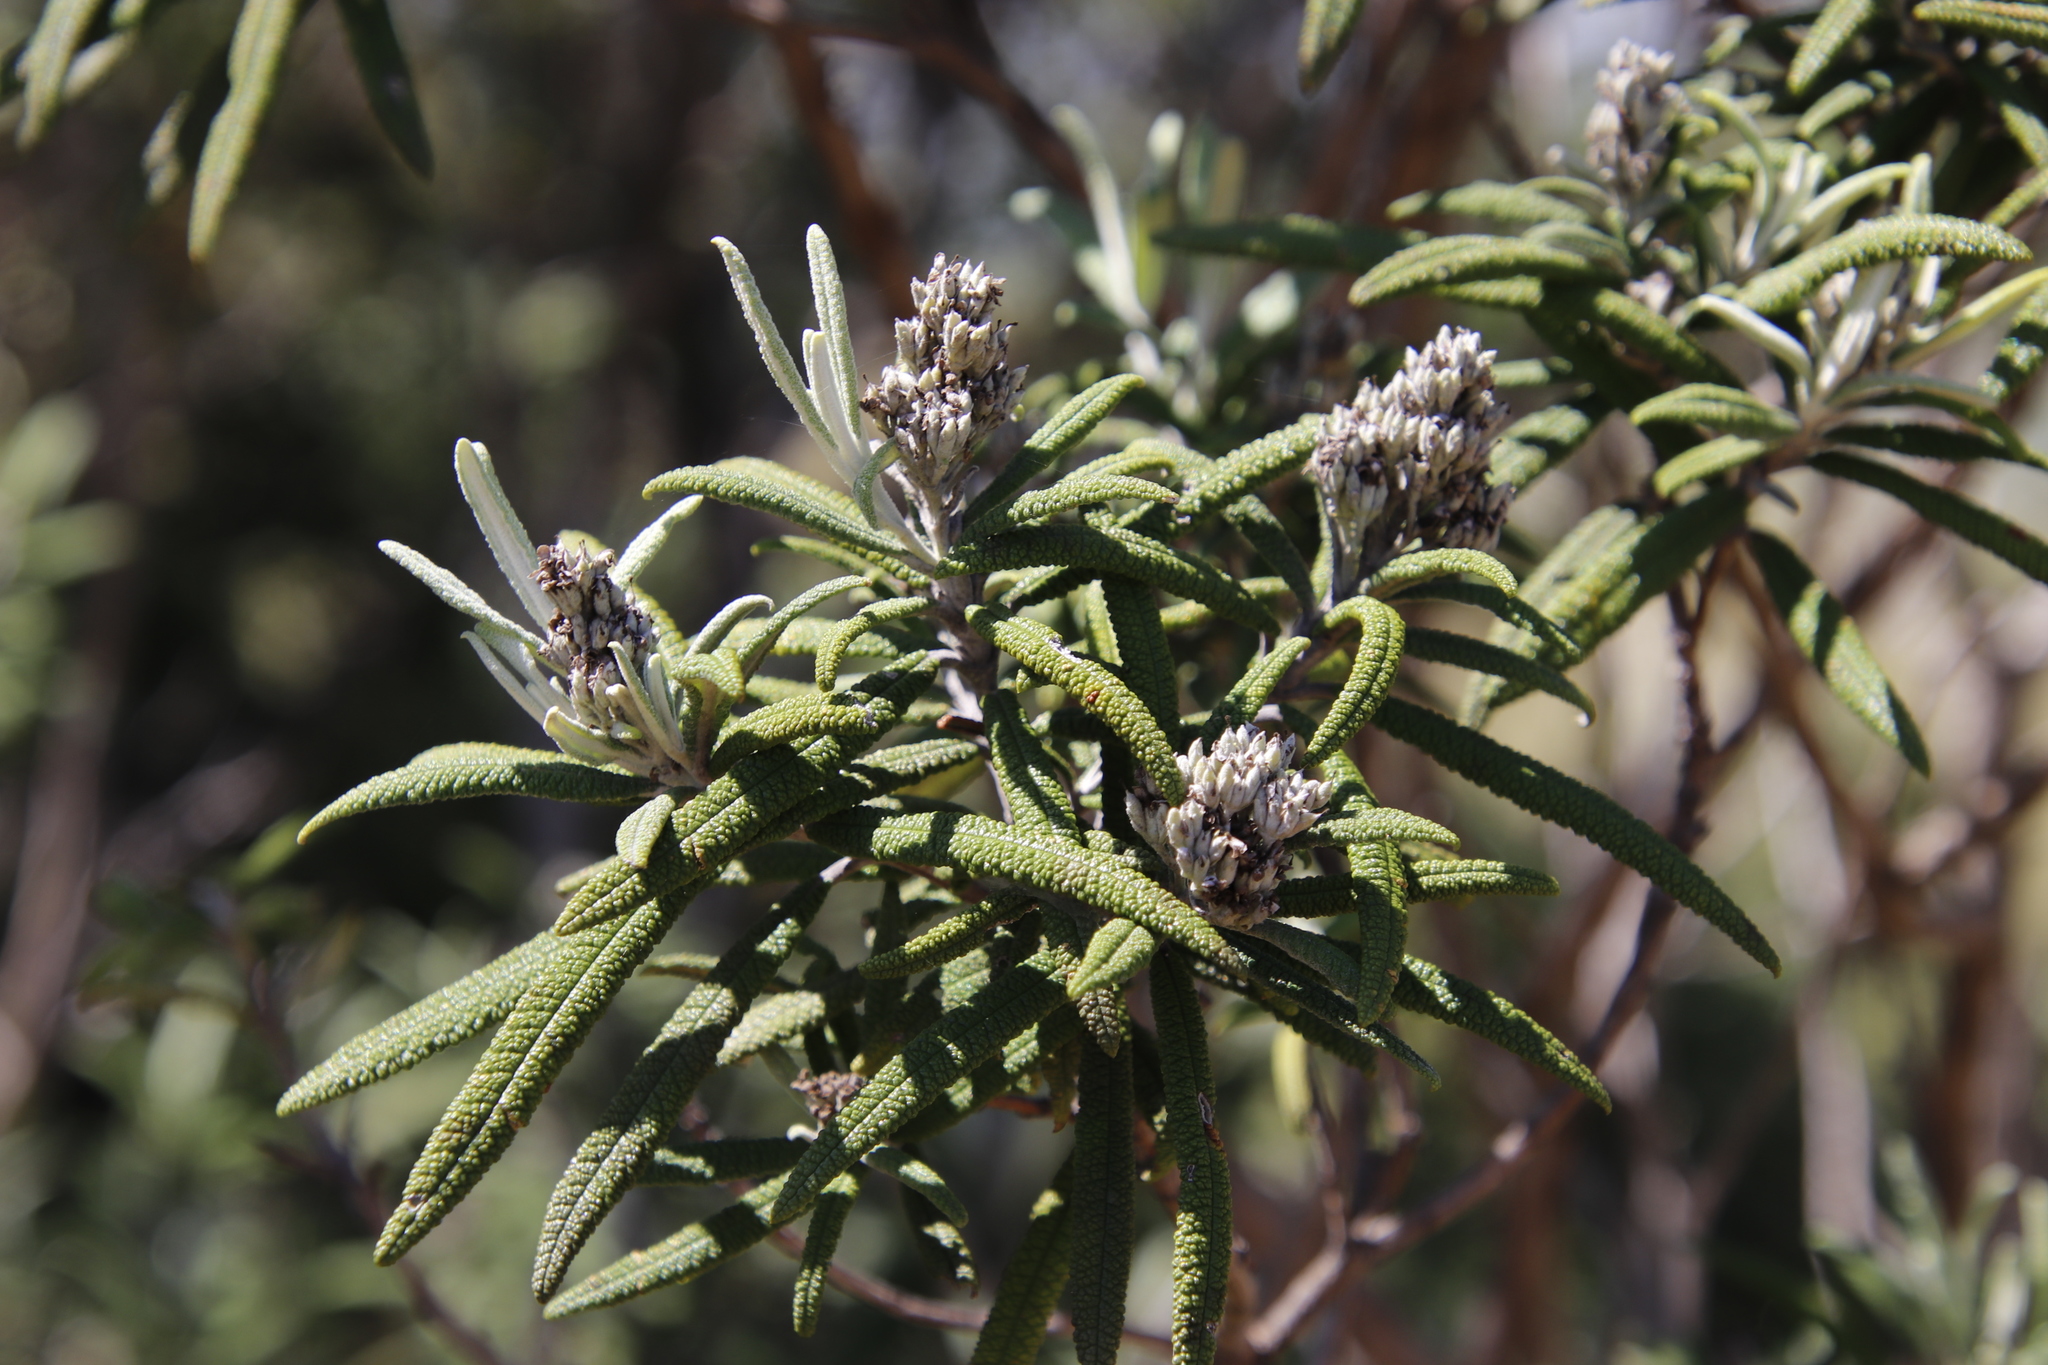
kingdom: Plantae
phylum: Tracheophyta
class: Magnoliopsida
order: Lamiales
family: Scrophulariaceae
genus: Buddleja
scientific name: Buddleja loricata
